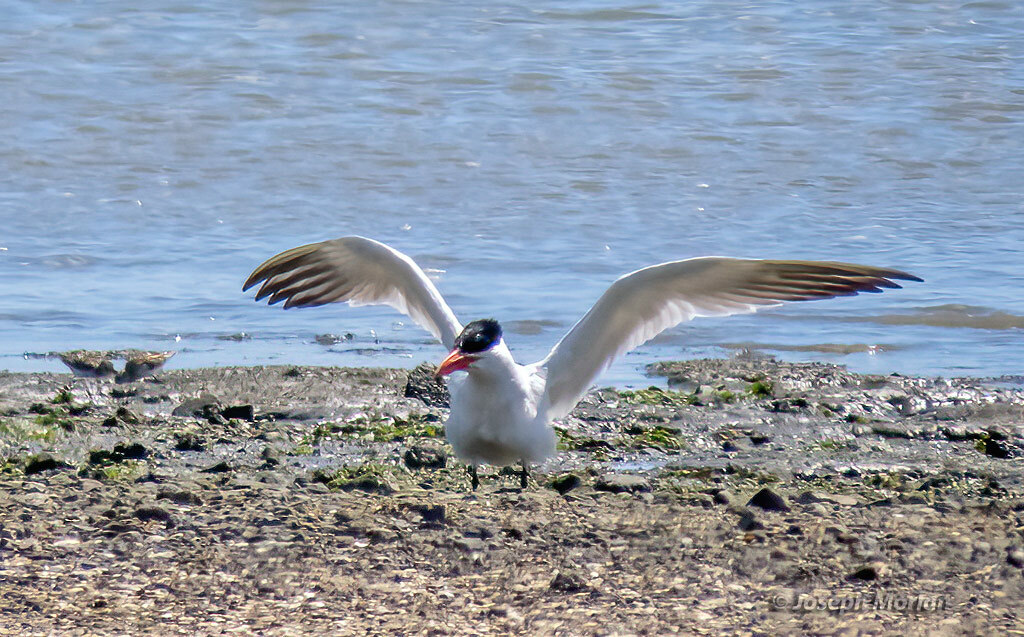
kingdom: Animalia
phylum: Chordata
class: Aves
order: Charadriiformes
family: Laridae
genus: Hydroprogne
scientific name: Hydroprogne caspia
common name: Caspian tern
